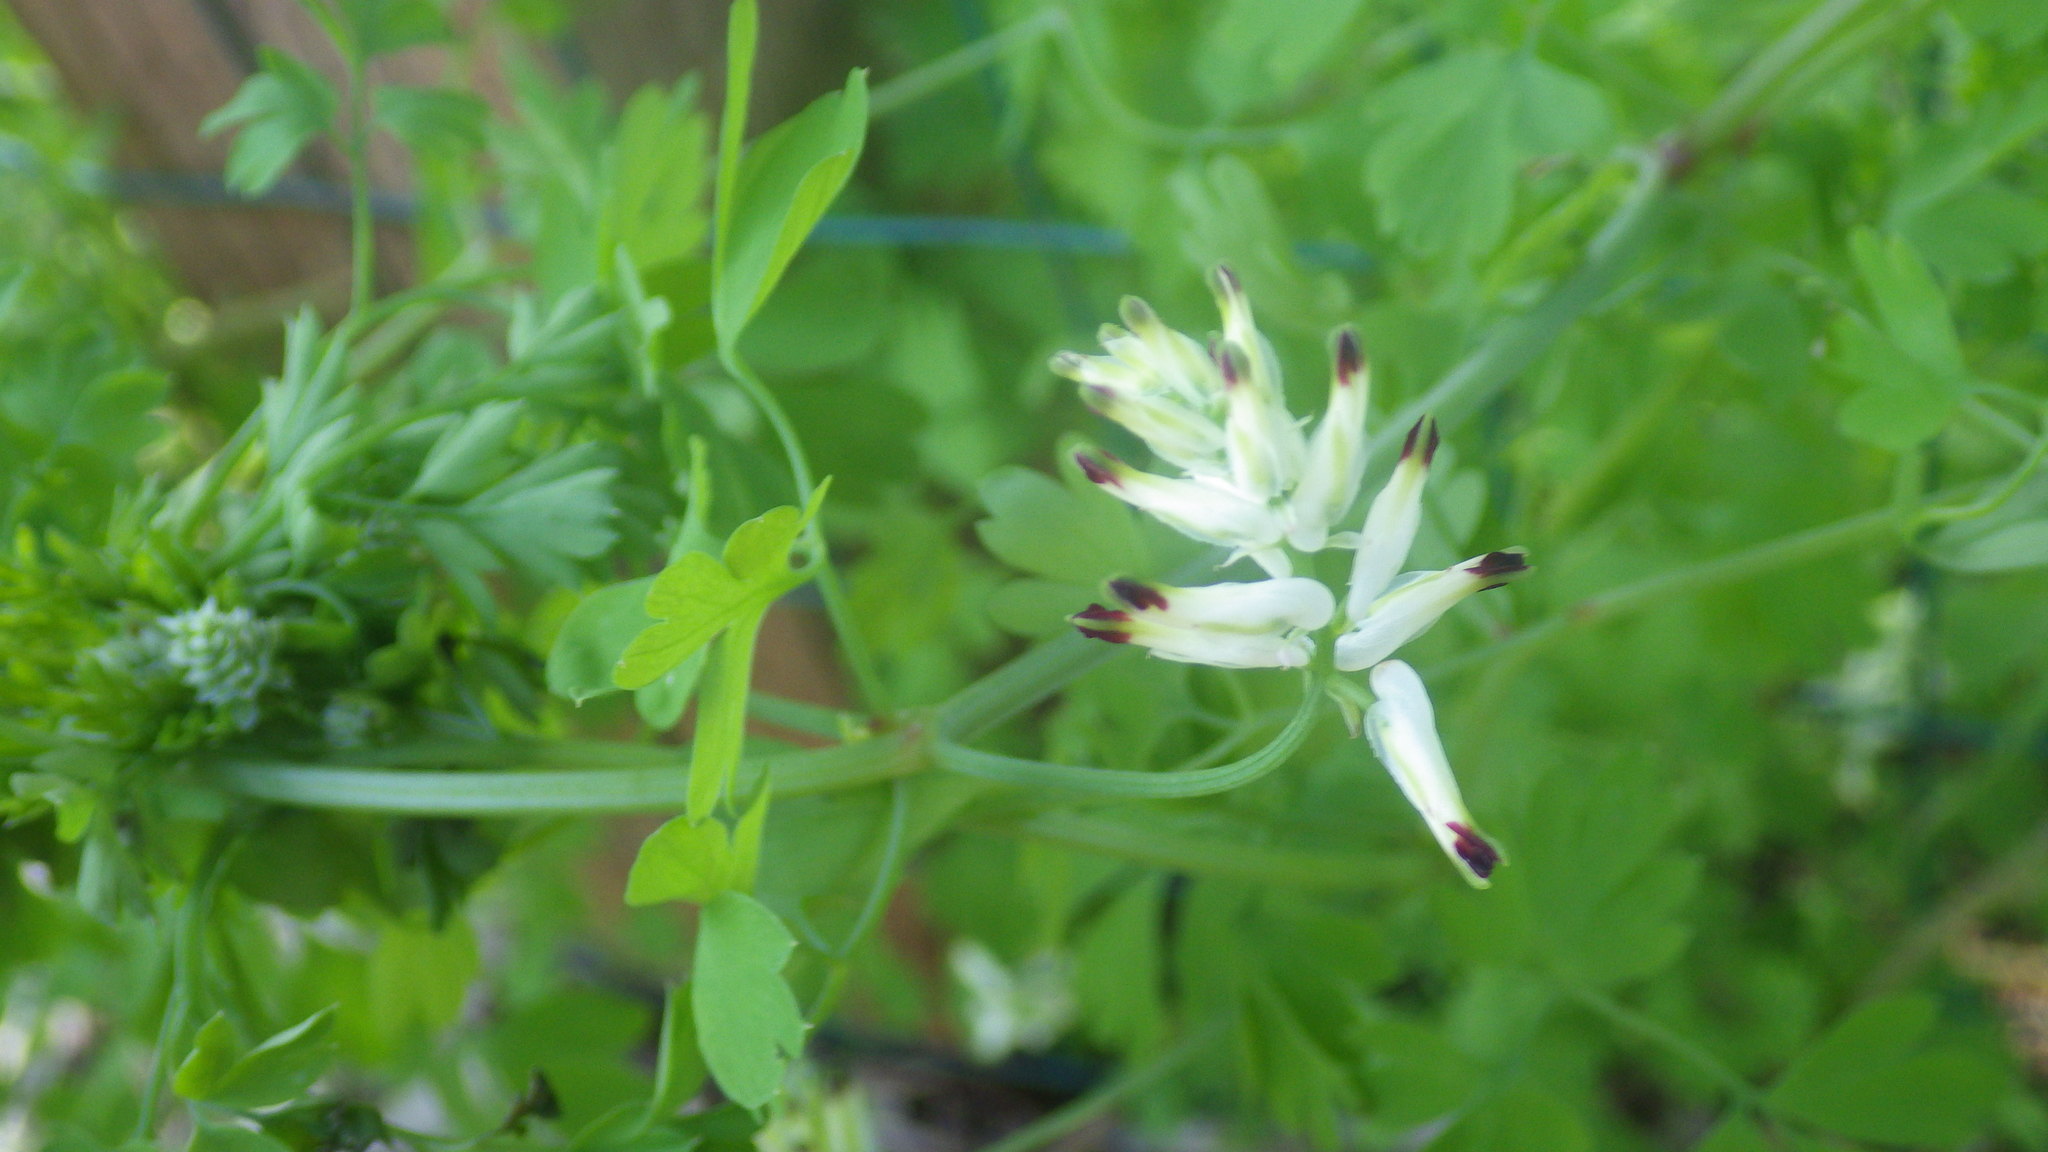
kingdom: Plantae
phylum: Tracheophyta
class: Magnoliopsida
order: Ranunculales
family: Papaveraceae
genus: Fumaria
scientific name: Fumaria capreolata
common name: White ramping-fumitory
